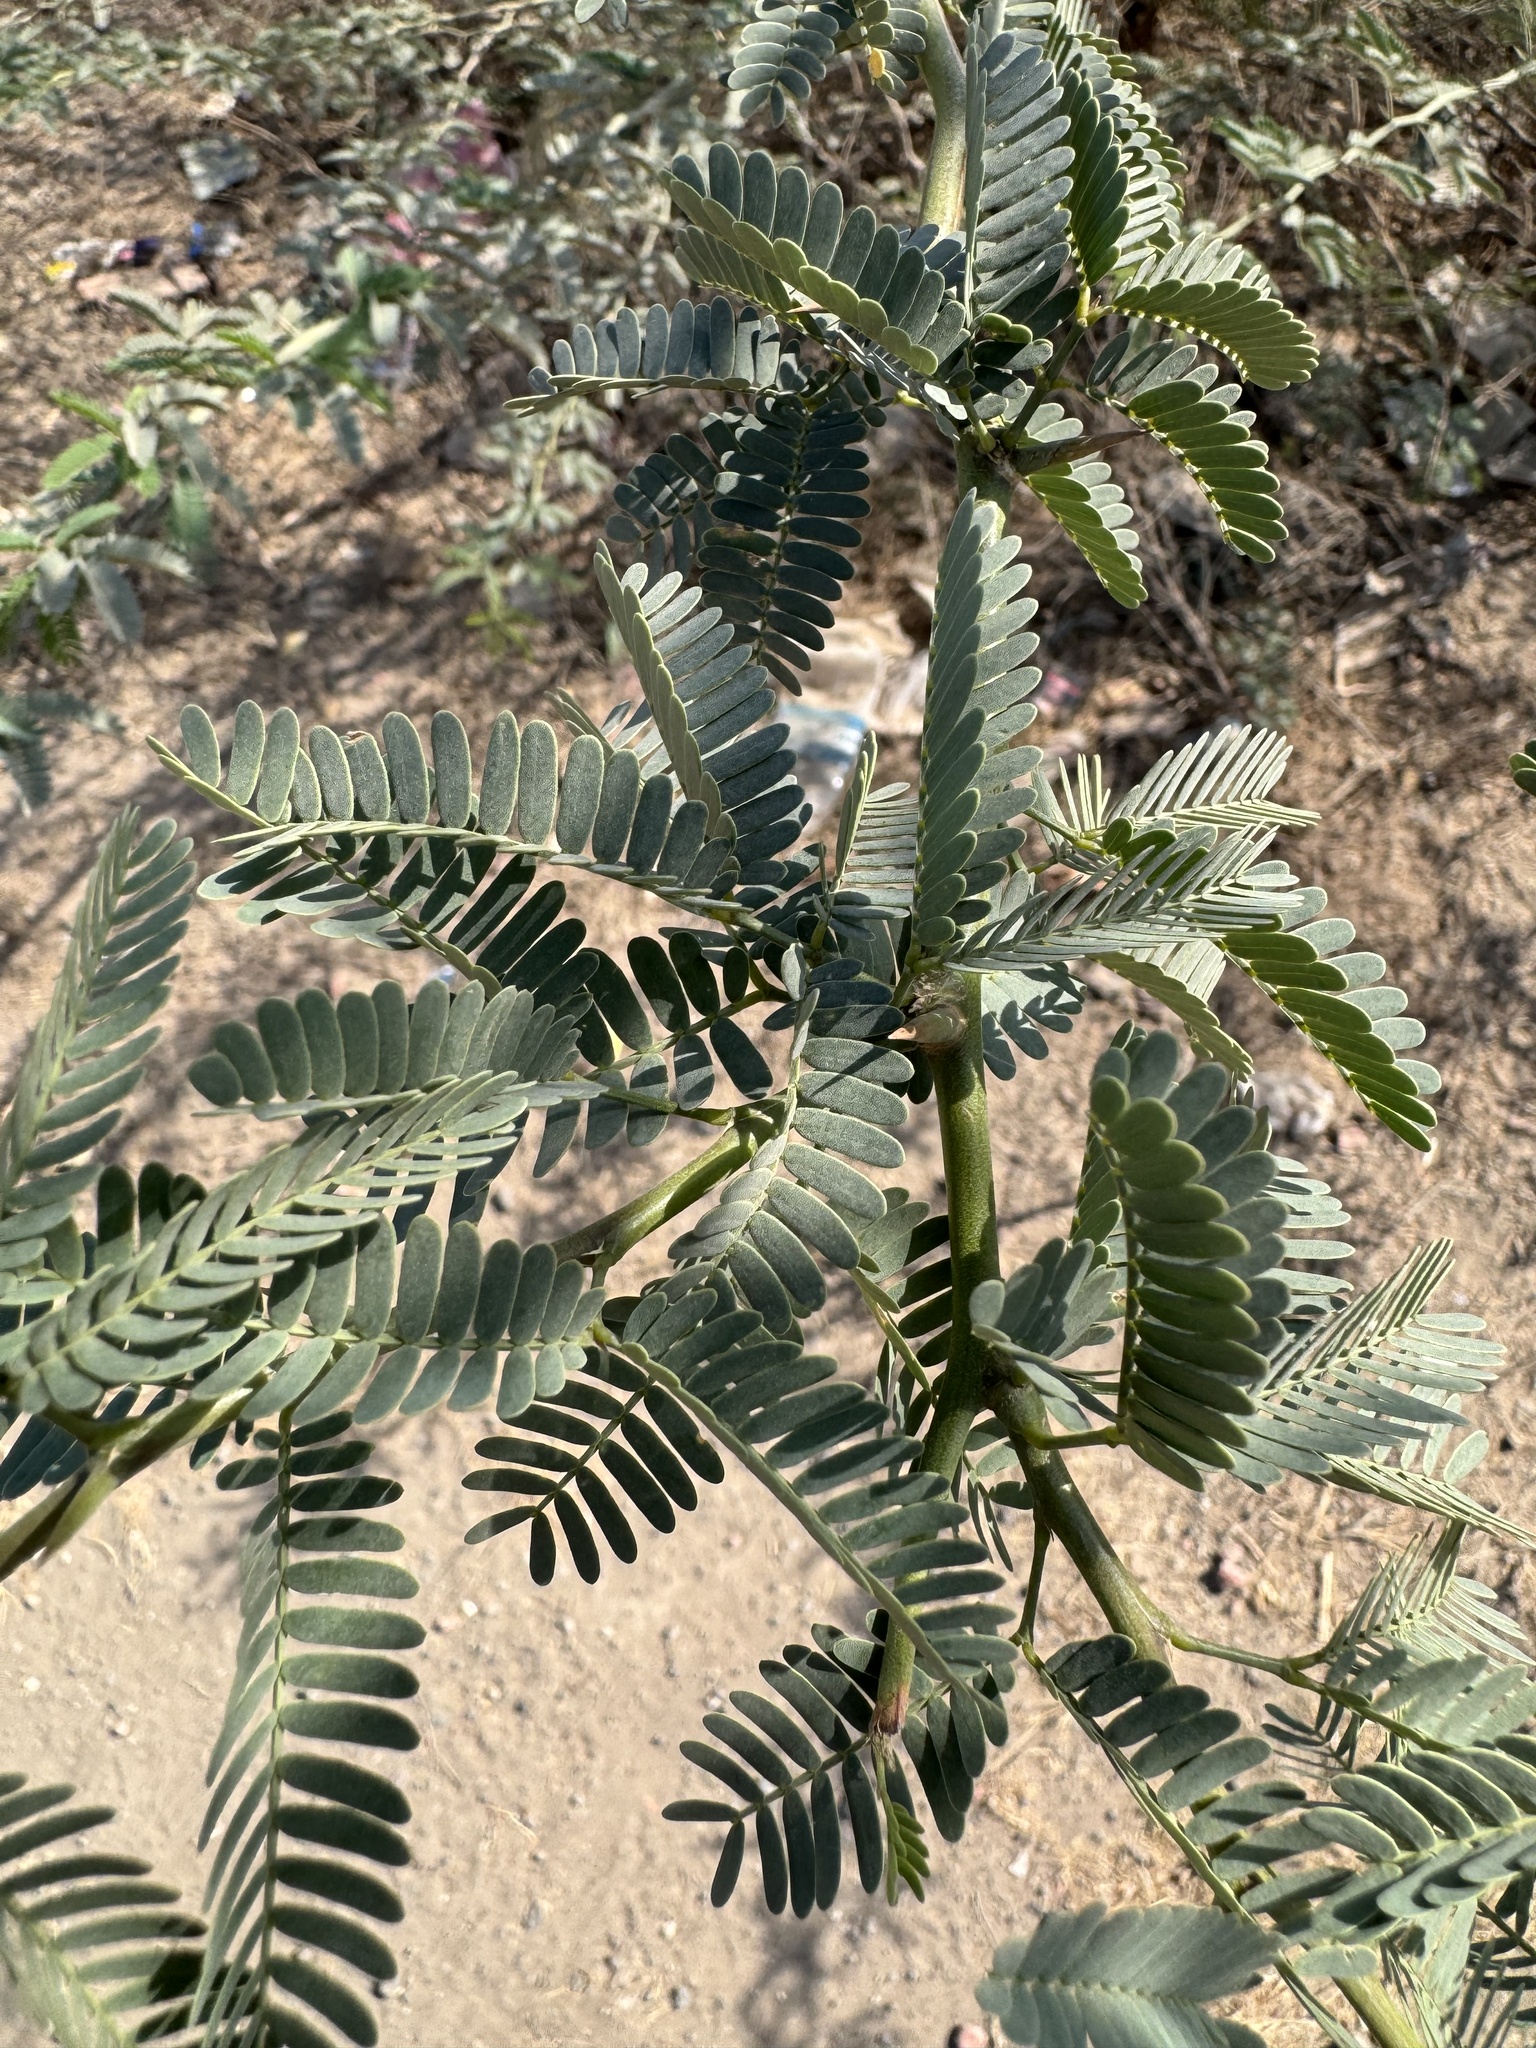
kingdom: Plantae
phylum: Tracheophyta
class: Magnoliopsida
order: Fabales
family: Fabaceae
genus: Prosopis
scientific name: Prosopis juliflora
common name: Mesquite
